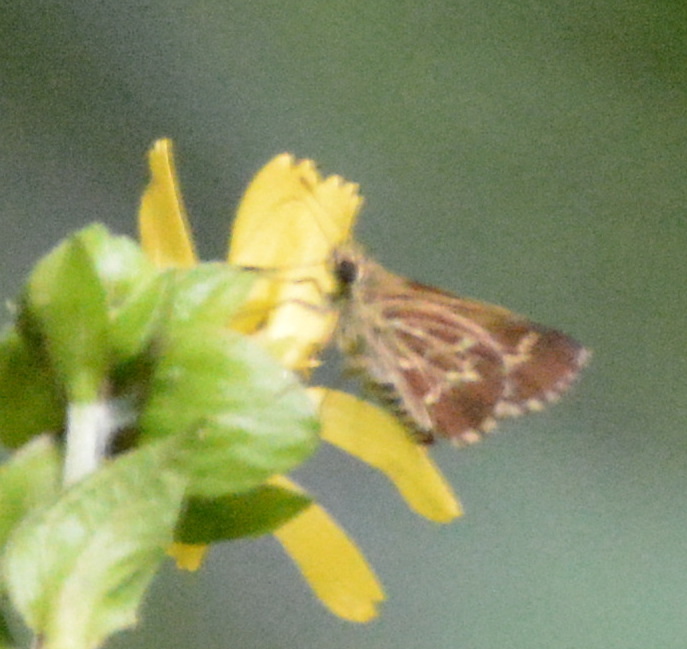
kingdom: Animalia
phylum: Arthropoda
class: Insecta
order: Lepidoptera
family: Hesperiidae
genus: Mastor
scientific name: Mastor aesculapius
